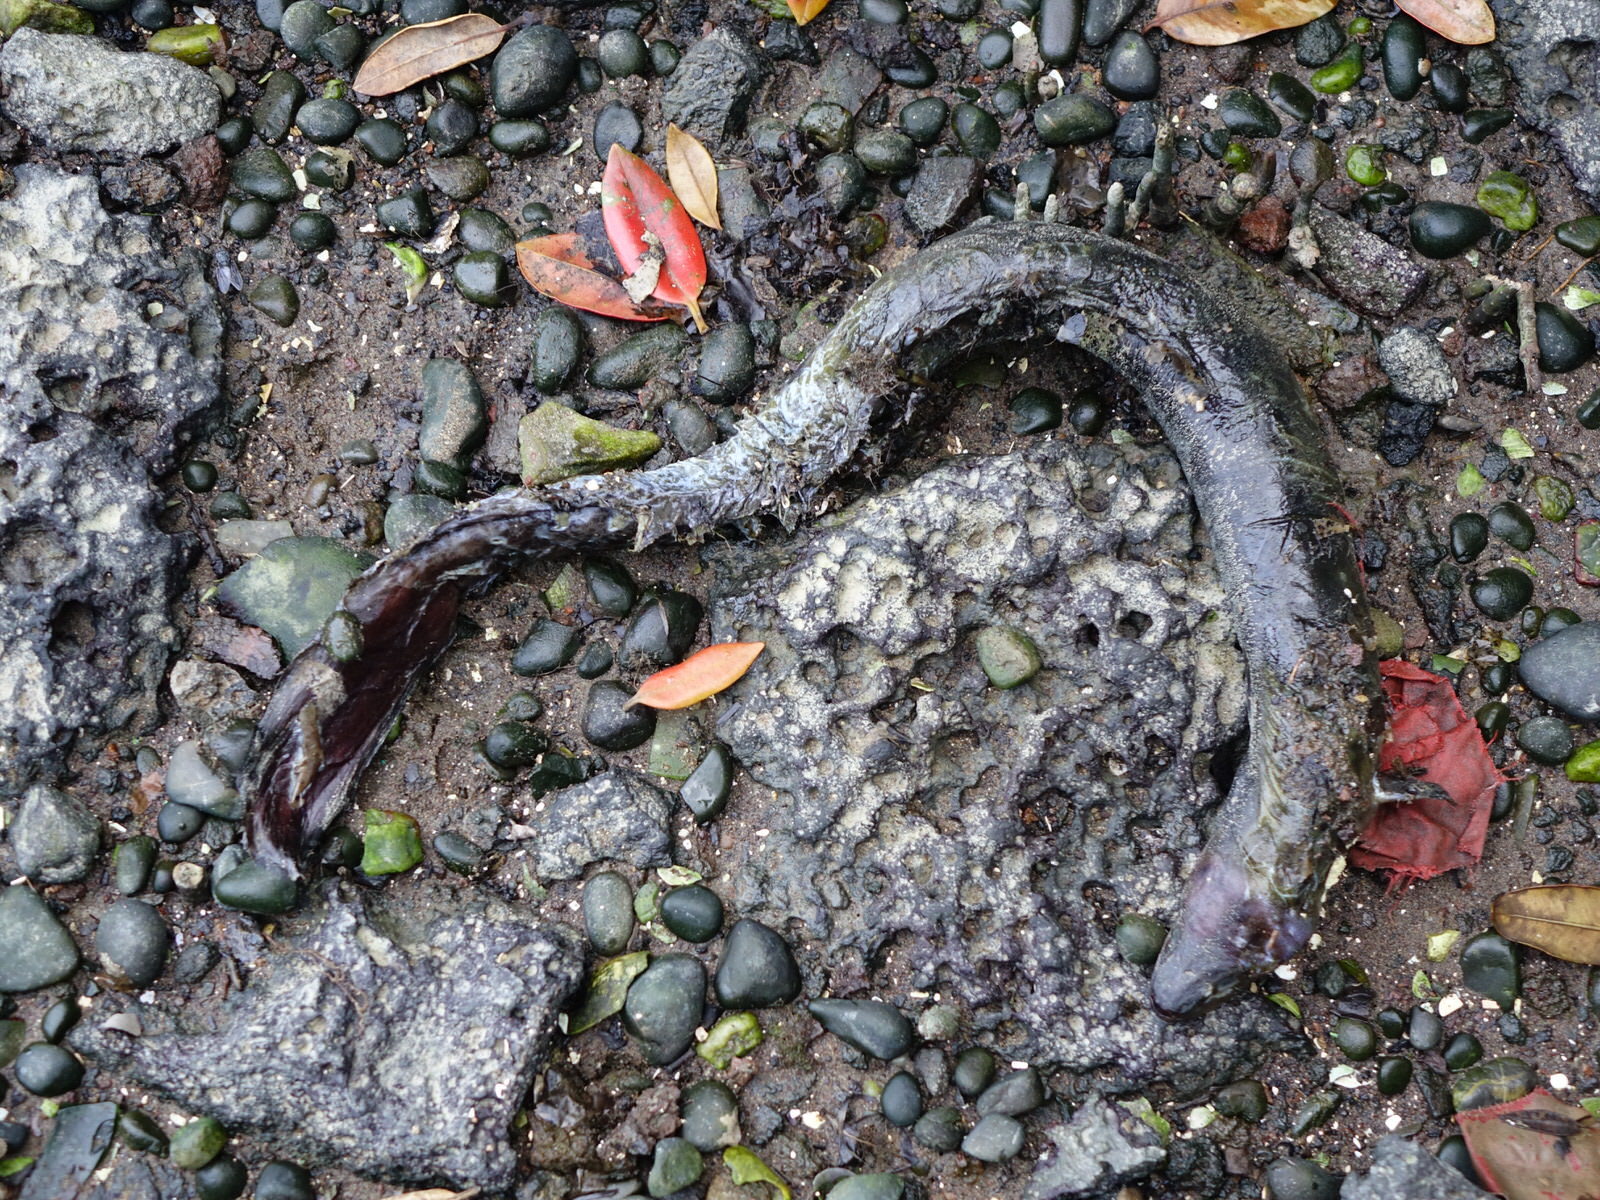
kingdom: Animalia
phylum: Chordata
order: Anguilliformes
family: Anguillidae
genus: Anguilla
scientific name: Anguilla australis
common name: Shortfin eel
